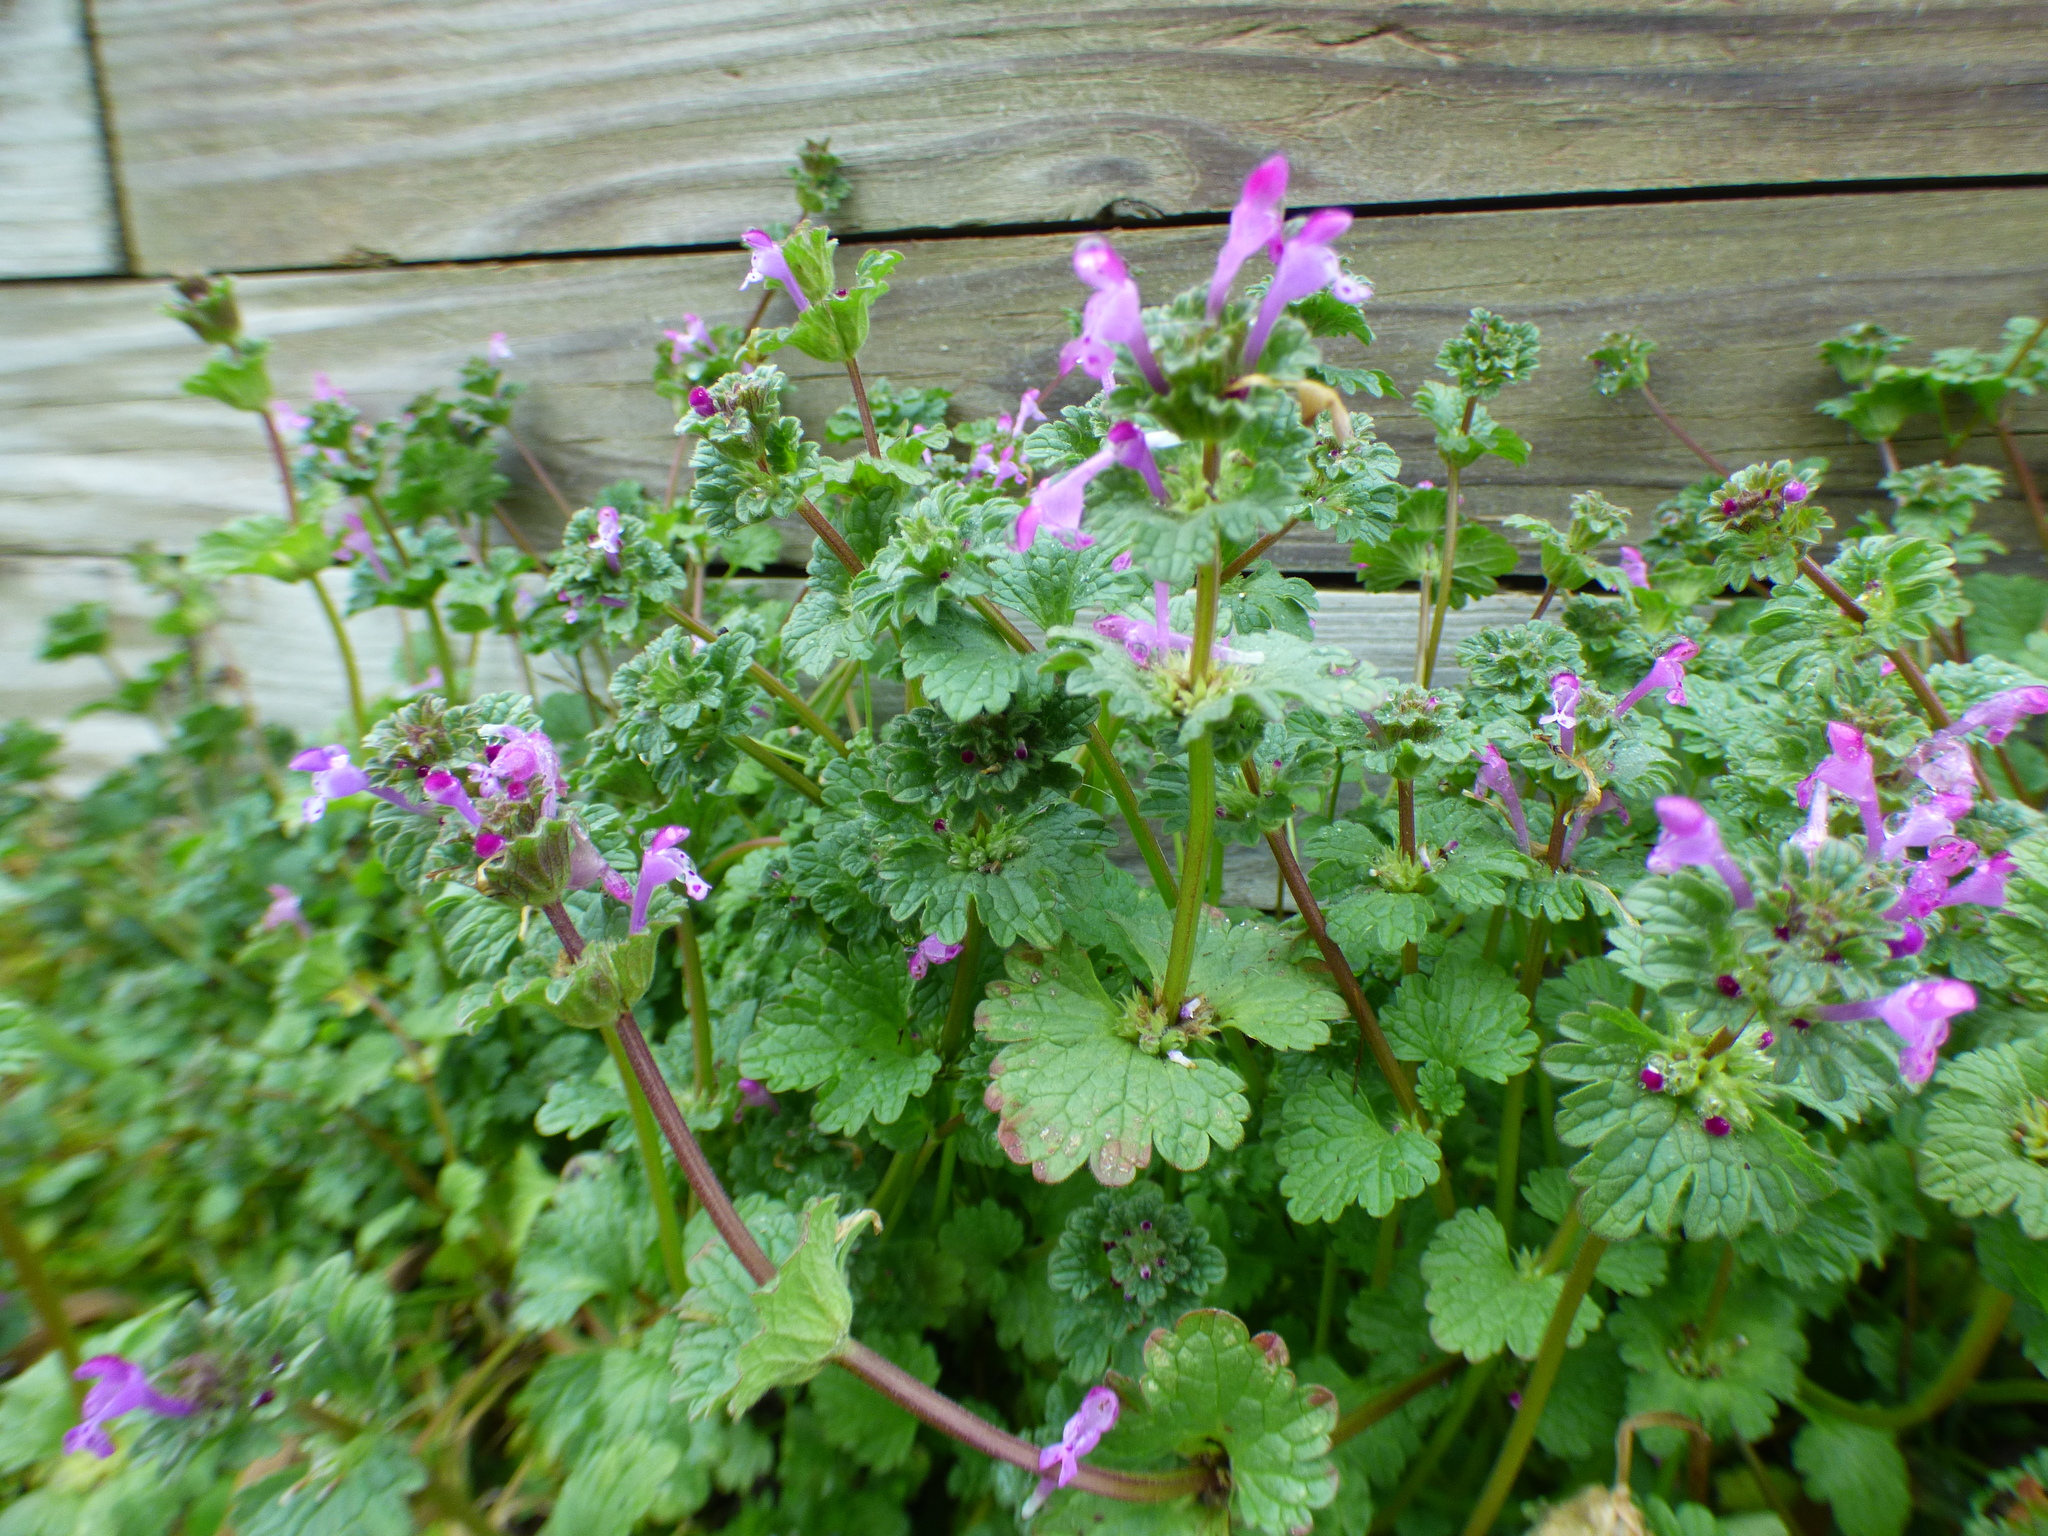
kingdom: Plantae
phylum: Tracheophyta
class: Magnoliopsida
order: Lamiales
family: Lamiaceae
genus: Lamium
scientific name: Lamium amplexicaule
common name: Henbit dead-nettle
